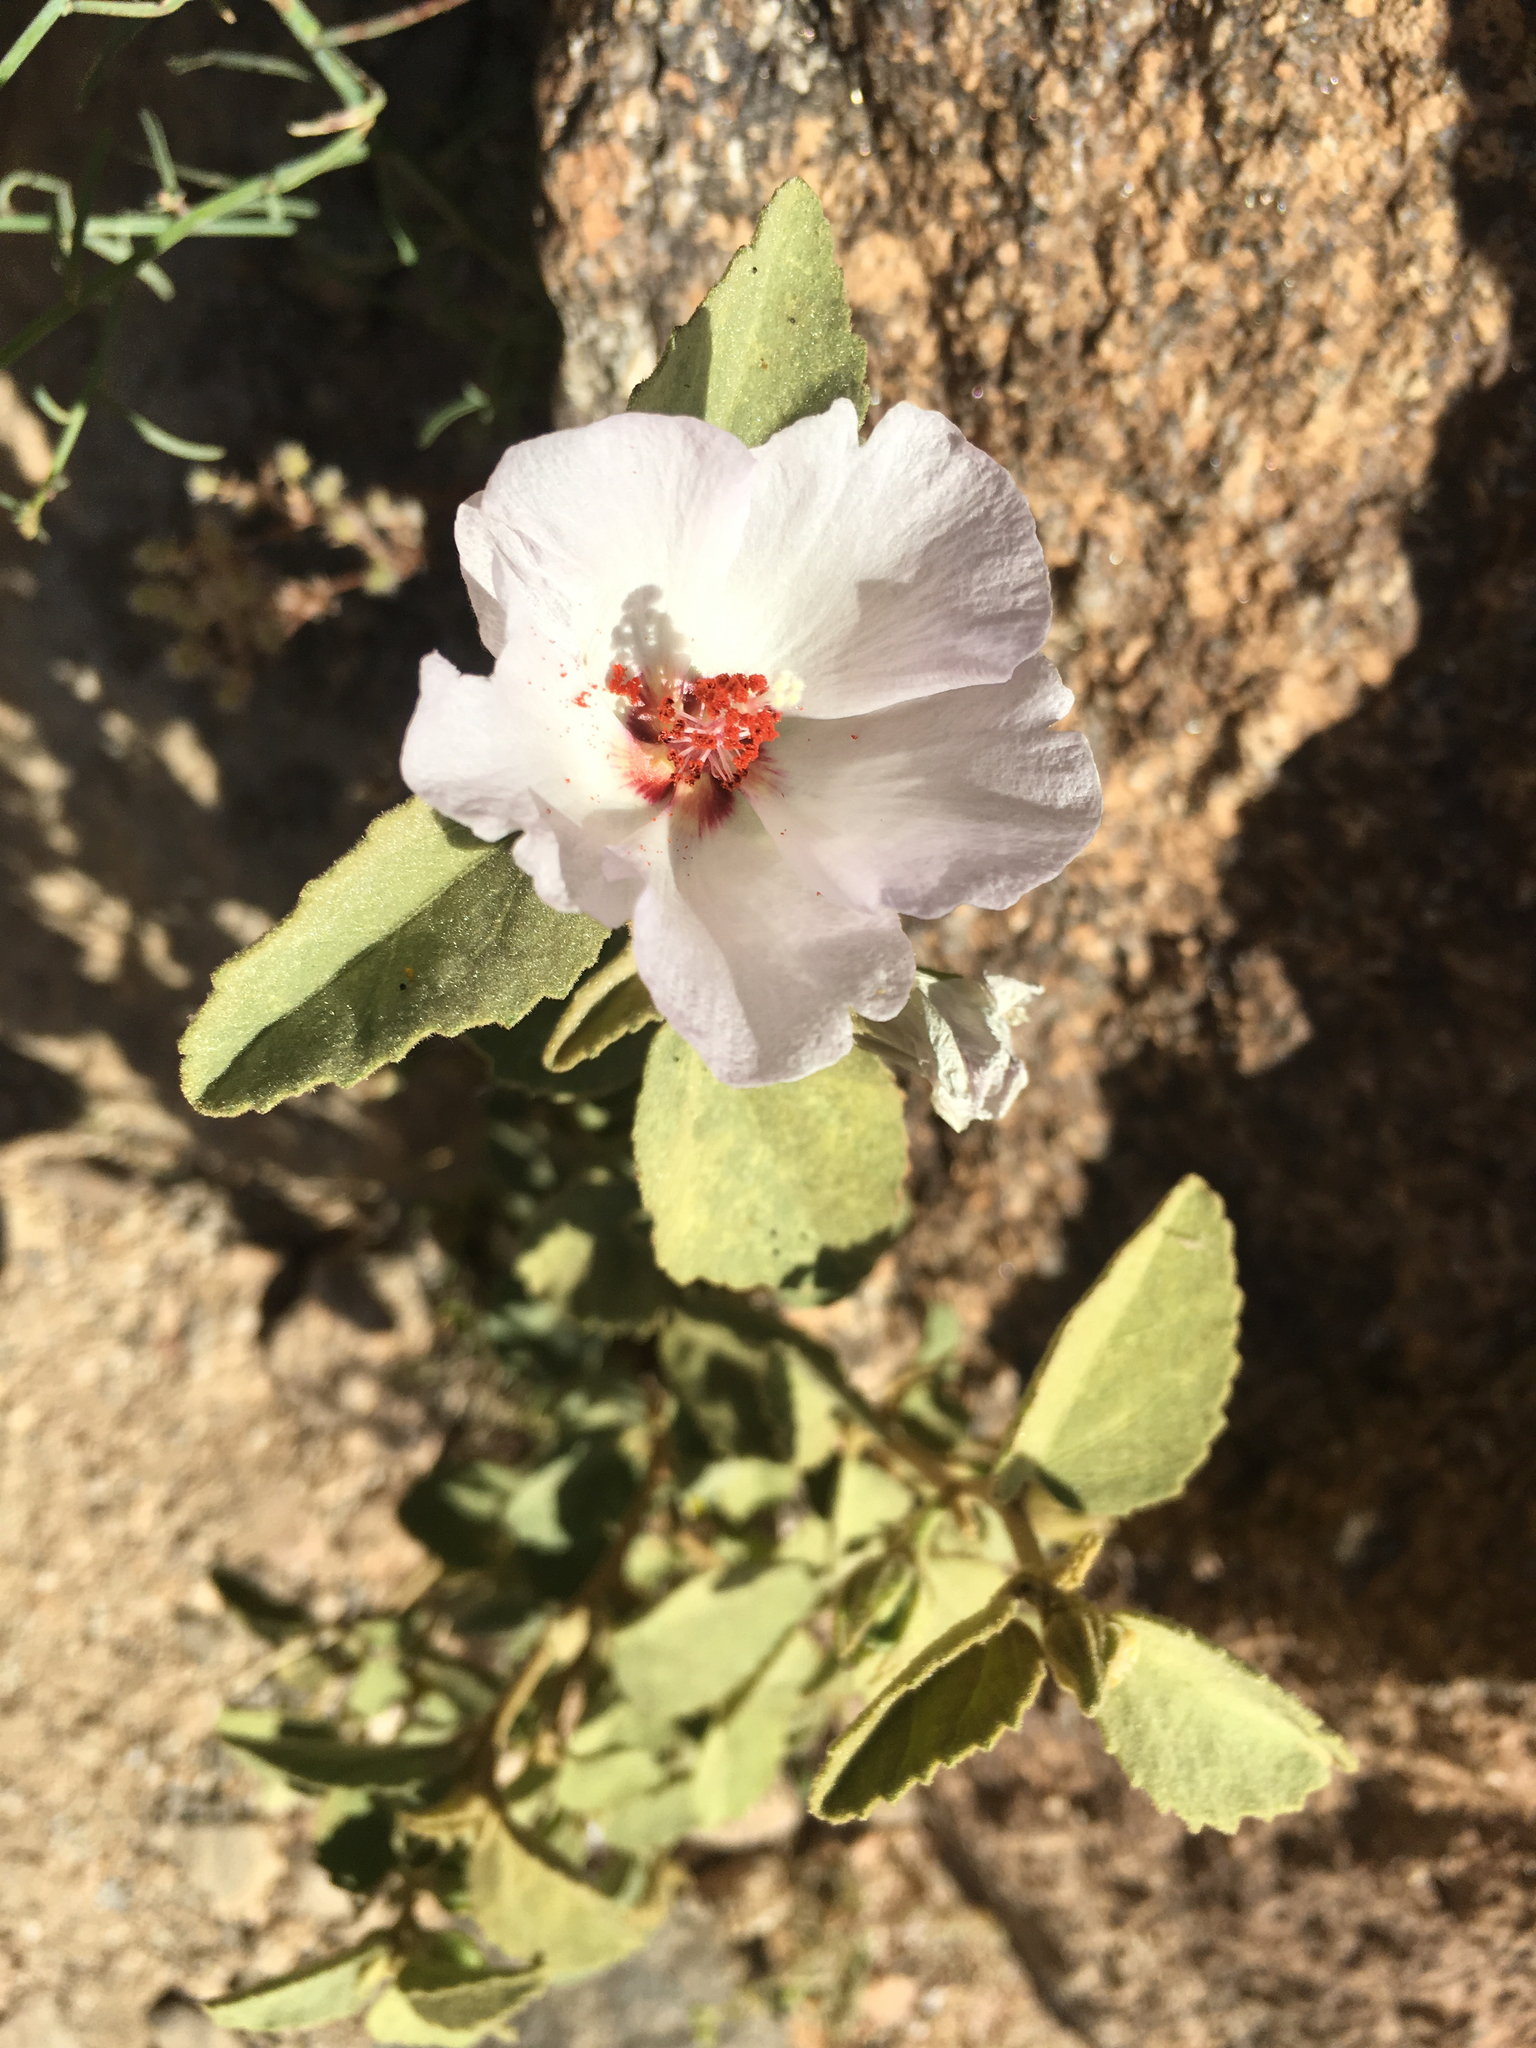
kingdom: Plantae
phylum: Tracheophyta
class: Magnoliopsida
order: Malvales
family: Malvaceae
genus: Hibiscus
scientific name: Hibiscus denudatus
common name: Paleface
